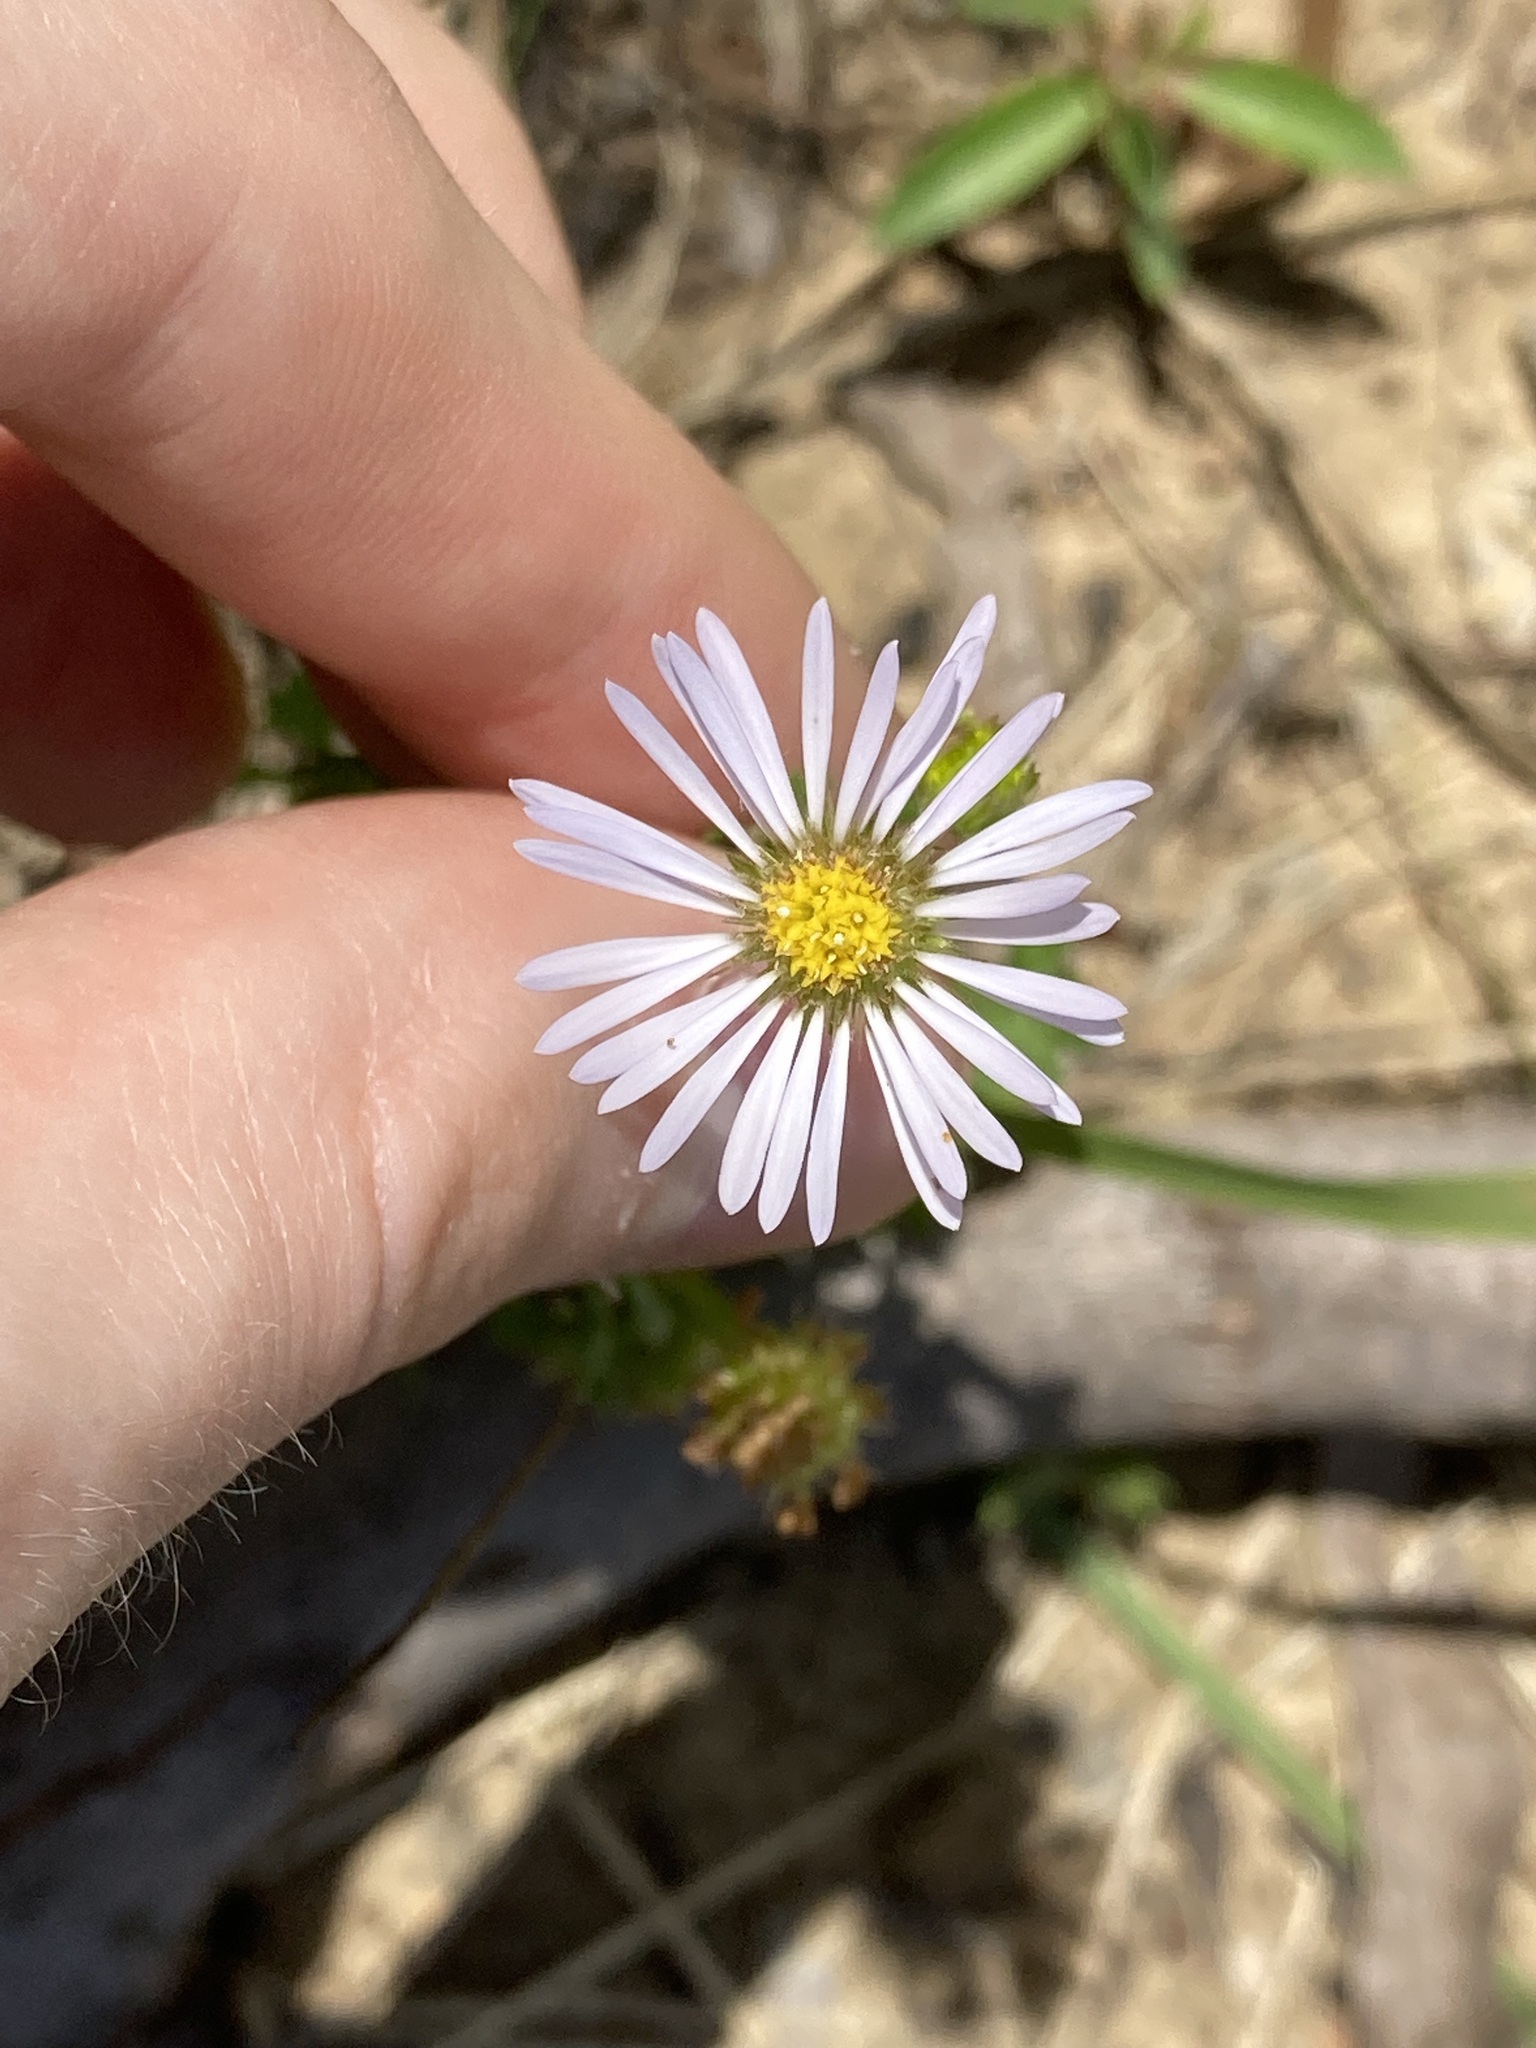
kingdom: Plantae
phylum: Tracheophyta
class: Magnoliopsida
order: Asterales
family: Asteraceae
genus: Calotis
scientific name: Calotis cuneifolia
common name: Bur-daisy
